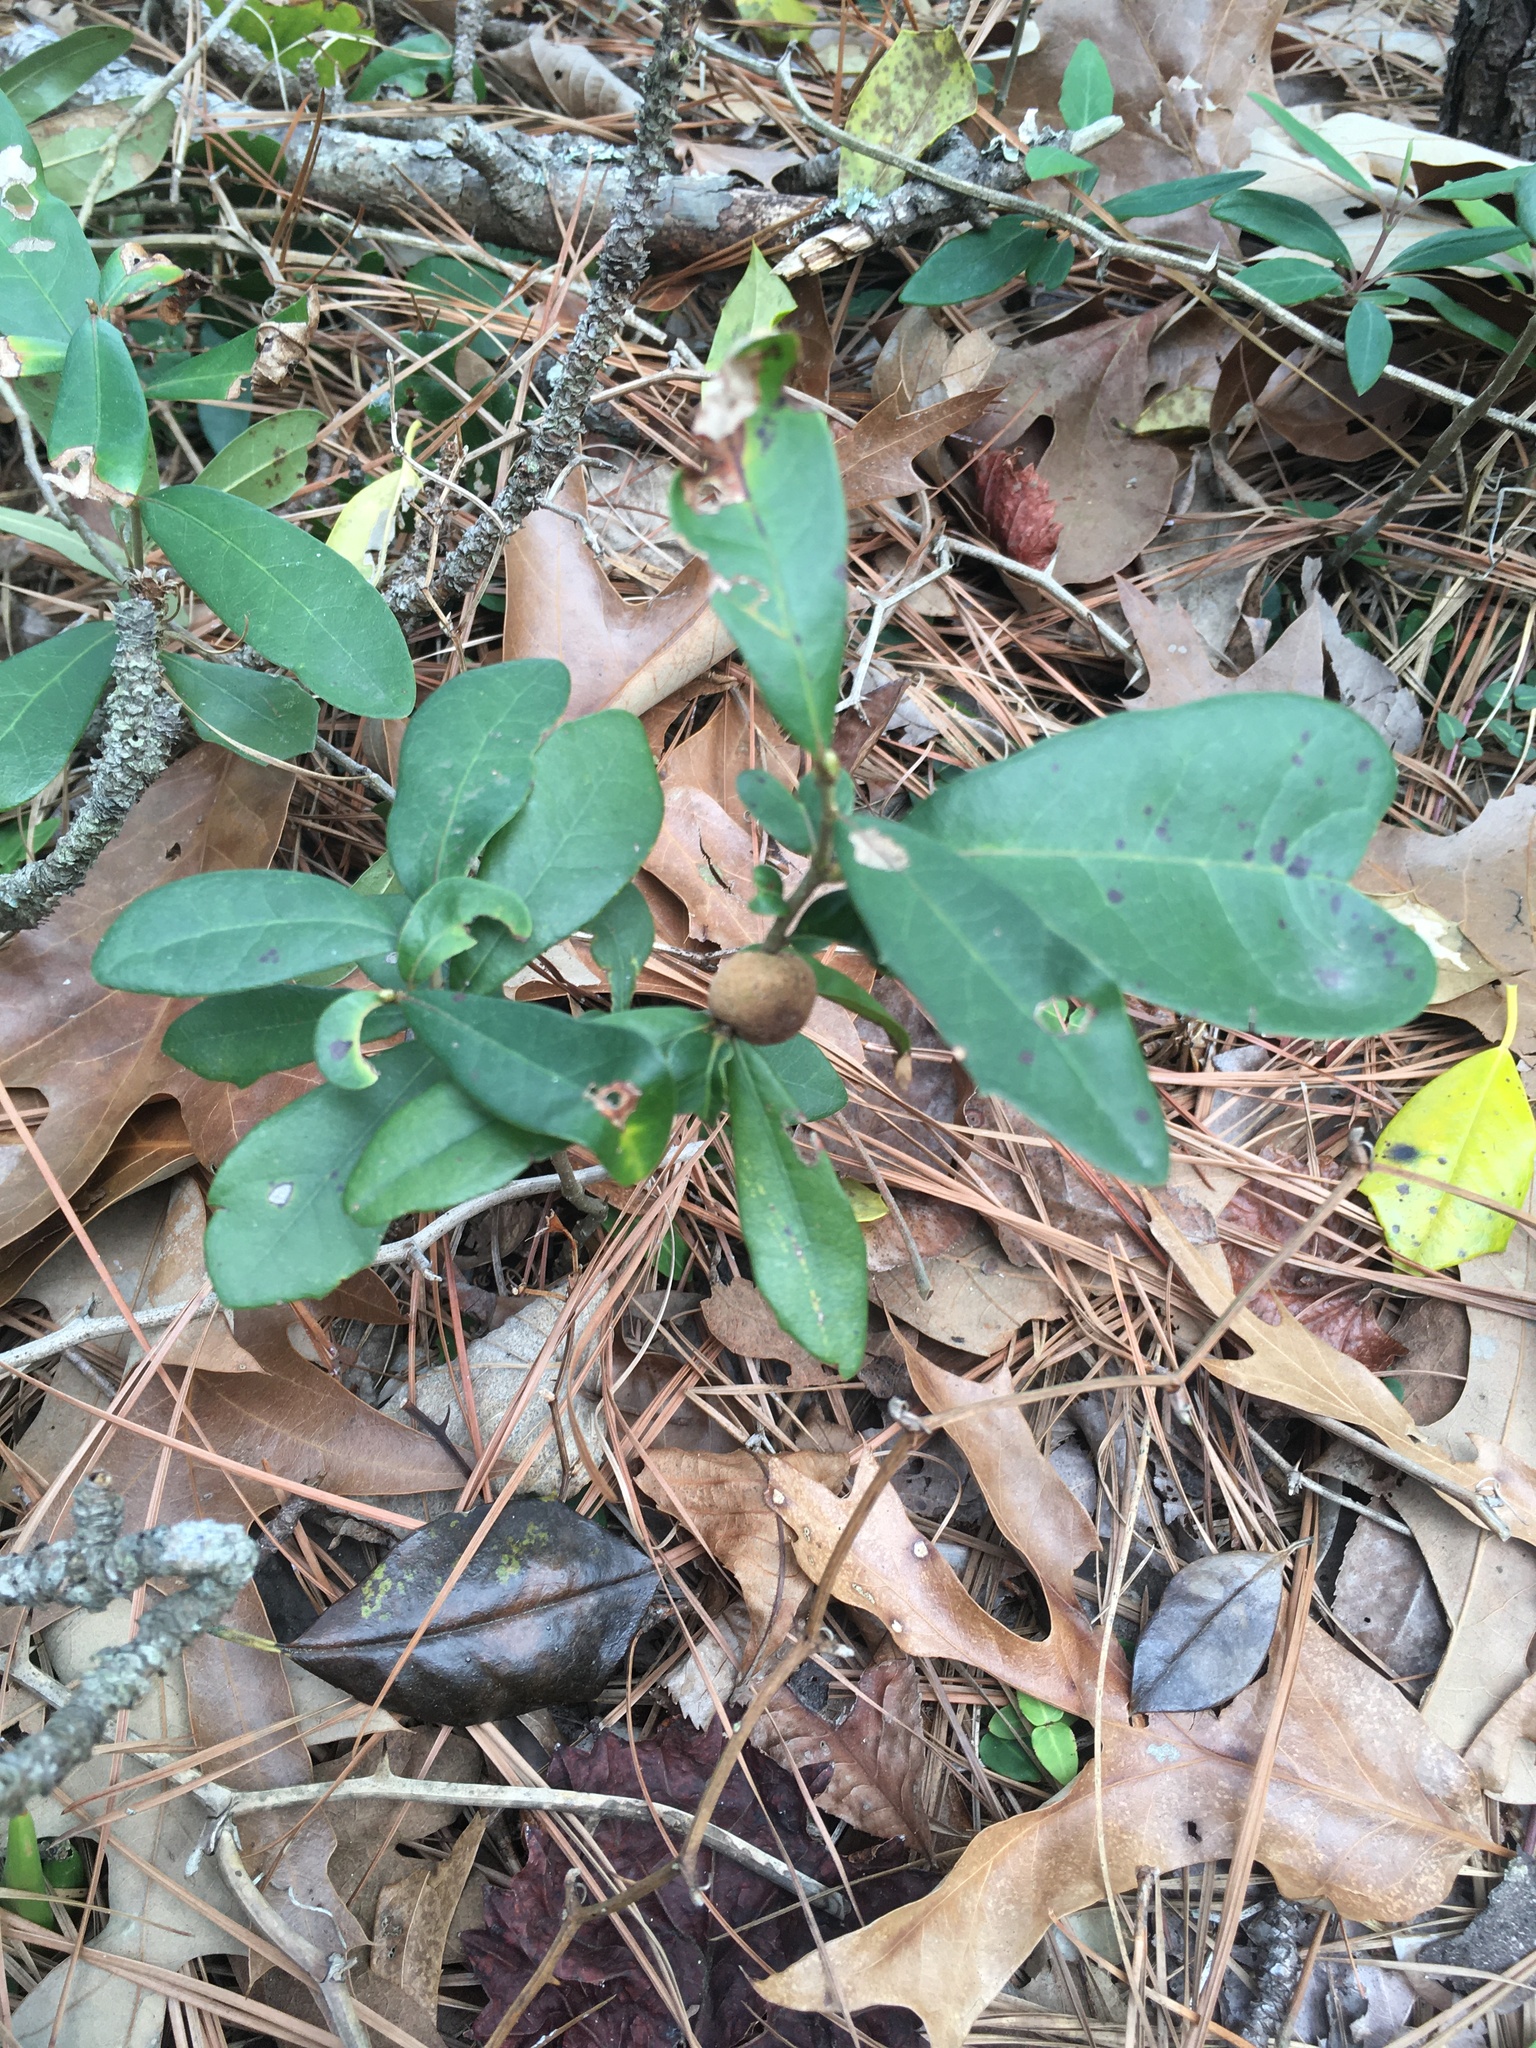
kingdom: Animalia
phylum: Arthropoda
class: Insecta
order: Hymenoptera
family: Cynipidae
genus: Disholcaspis
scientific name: Disholcaspis
